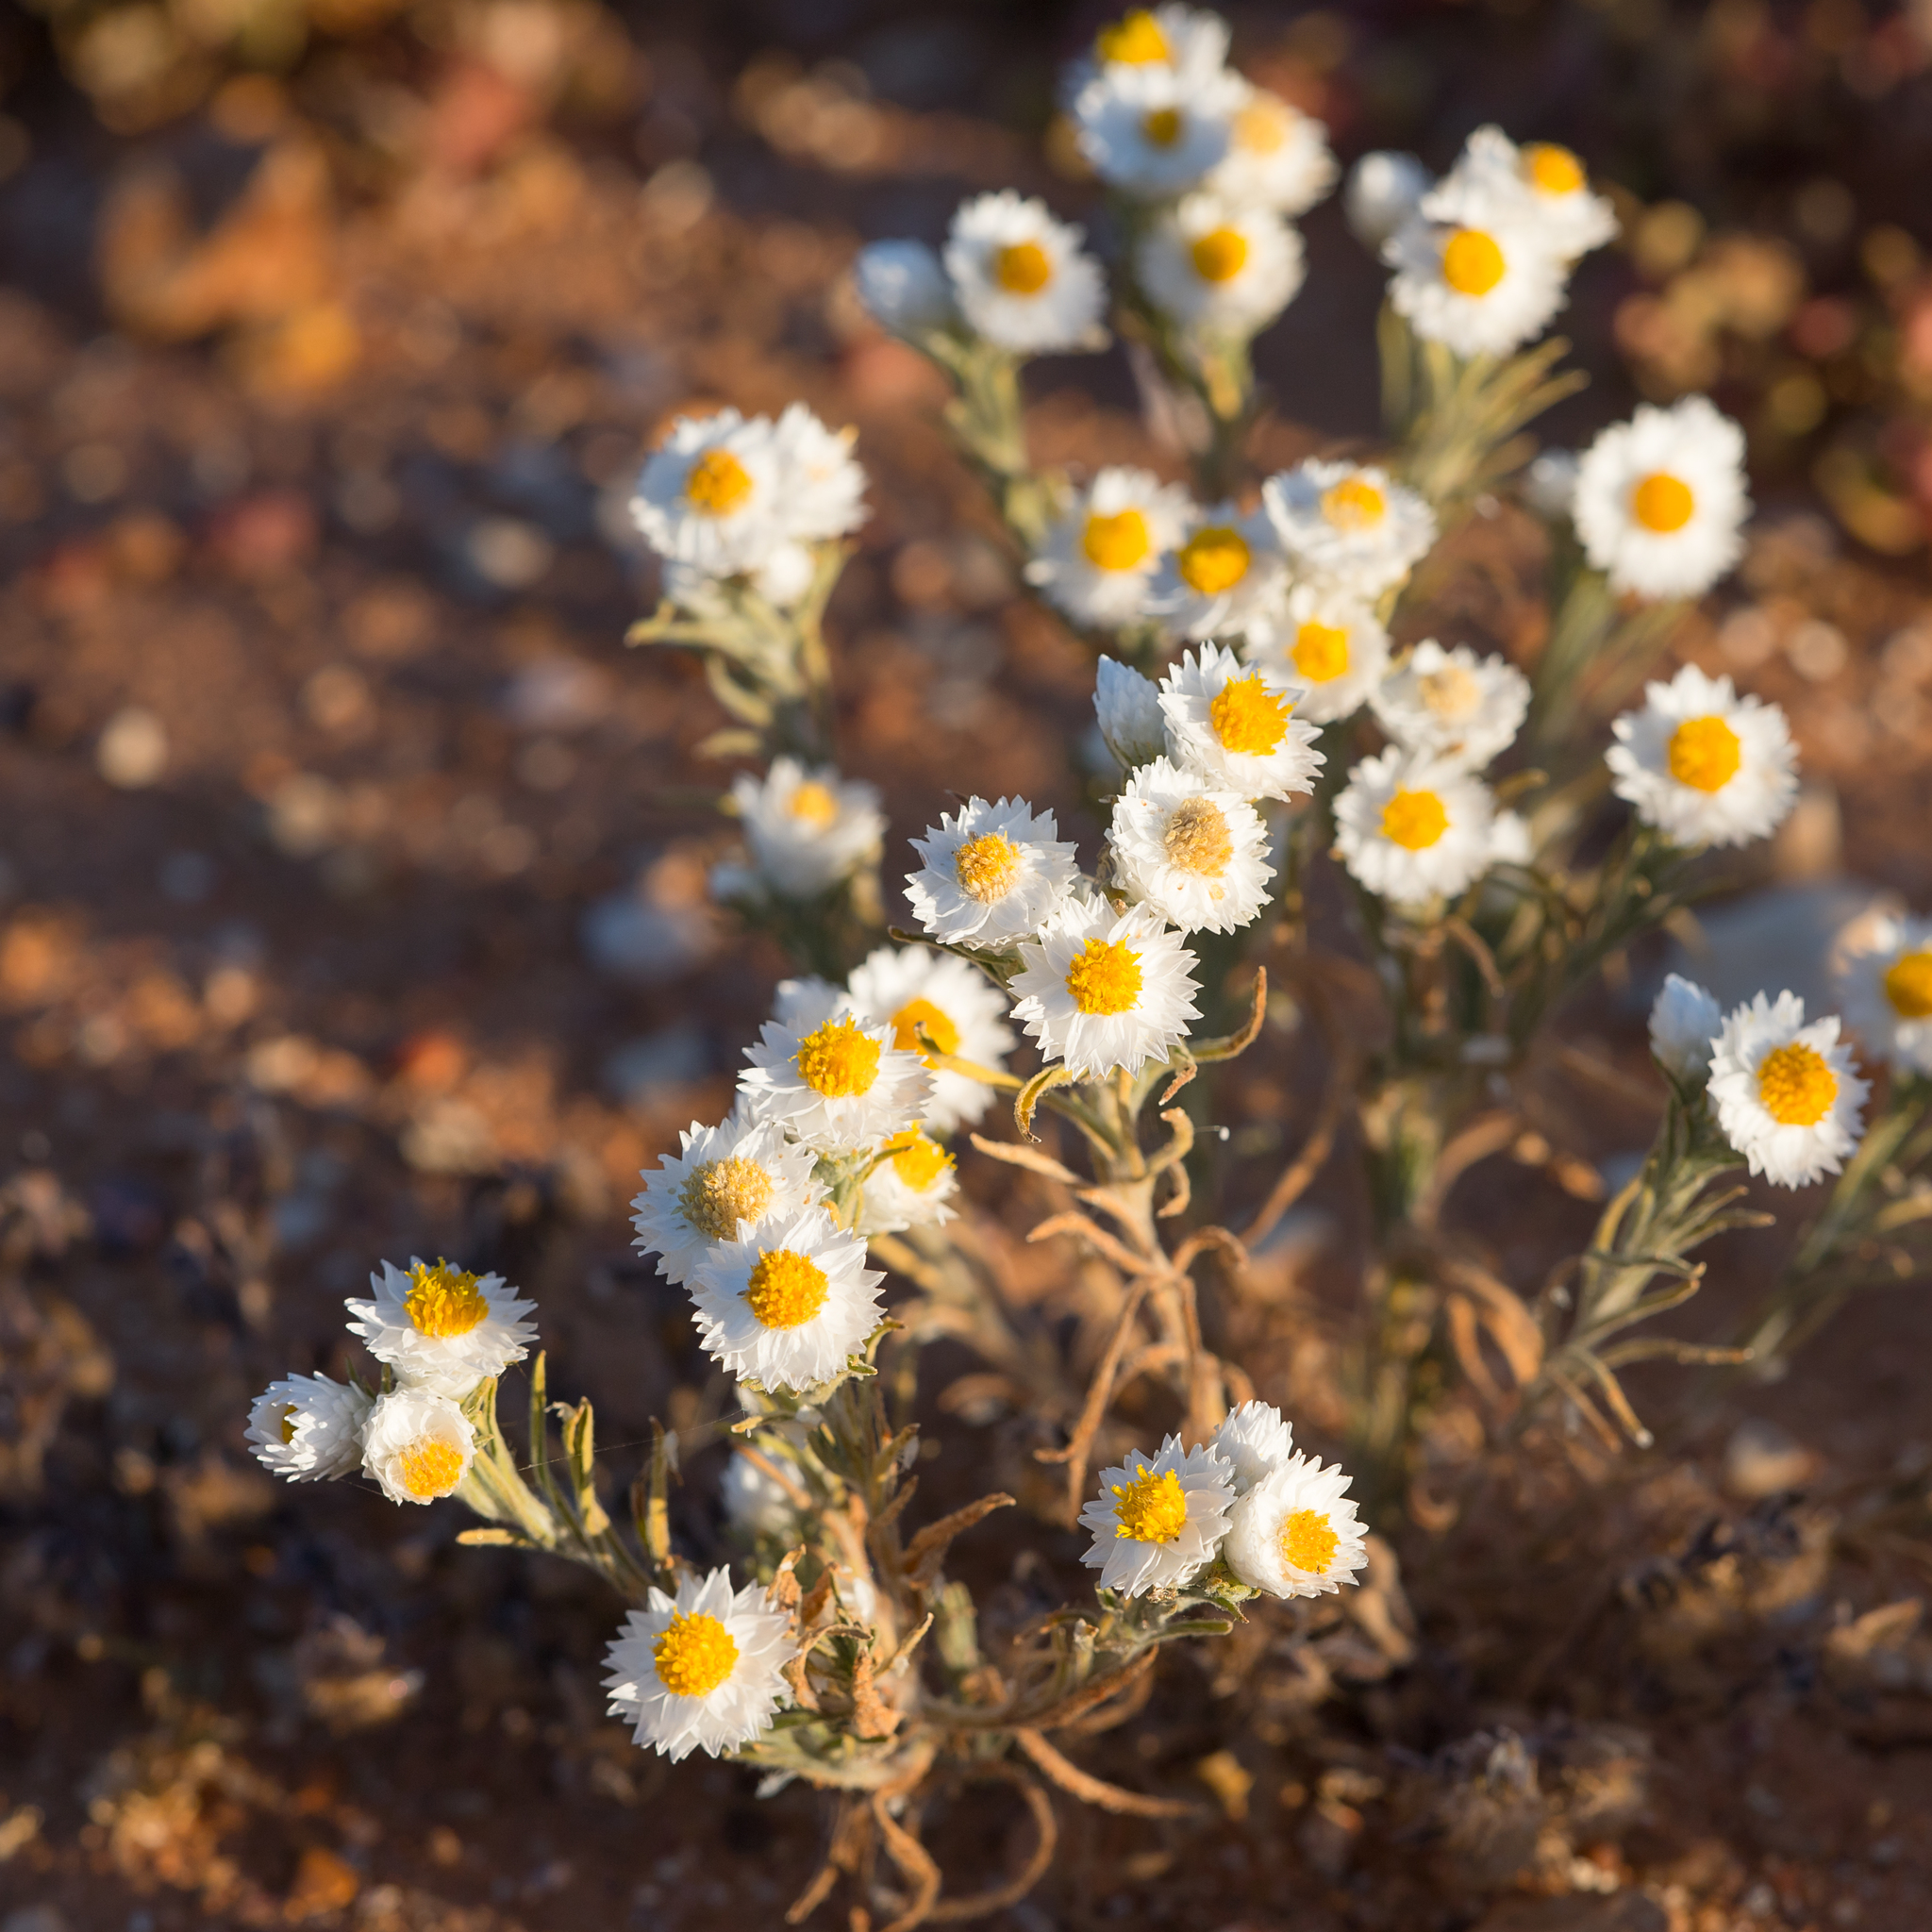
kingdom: Plantae
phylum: Tracheophyta
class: Magnoliopsida
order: Asterales
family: Asteraceae
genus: Rhodanthe
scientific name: Rhodanthe floribunda
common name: Flowery sunray
